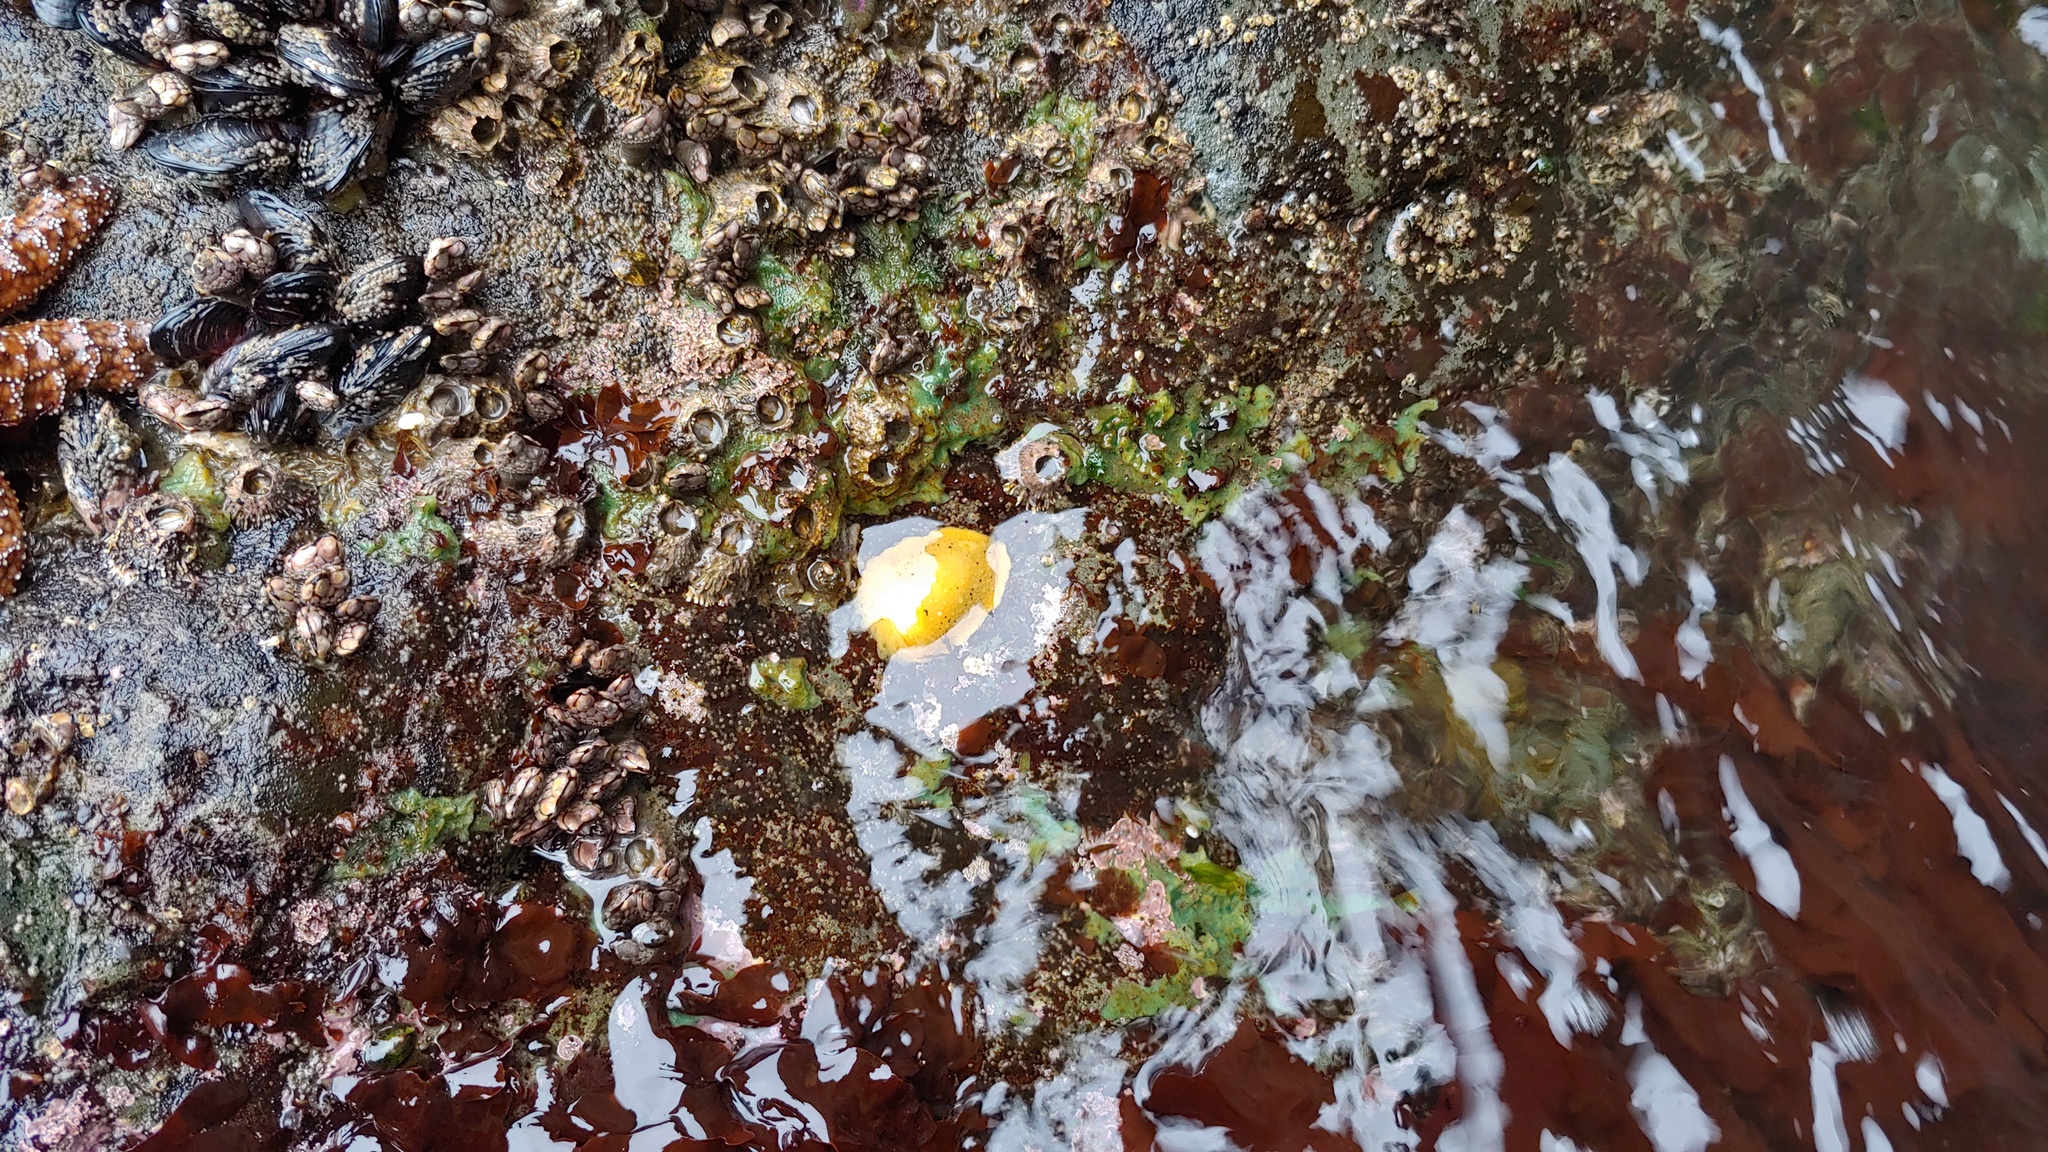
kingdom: Animalia
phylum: Mollusca
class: Gastropoda
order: Nudibranchia
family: Dorididae
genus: Doris
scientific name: Doris montereyensis
